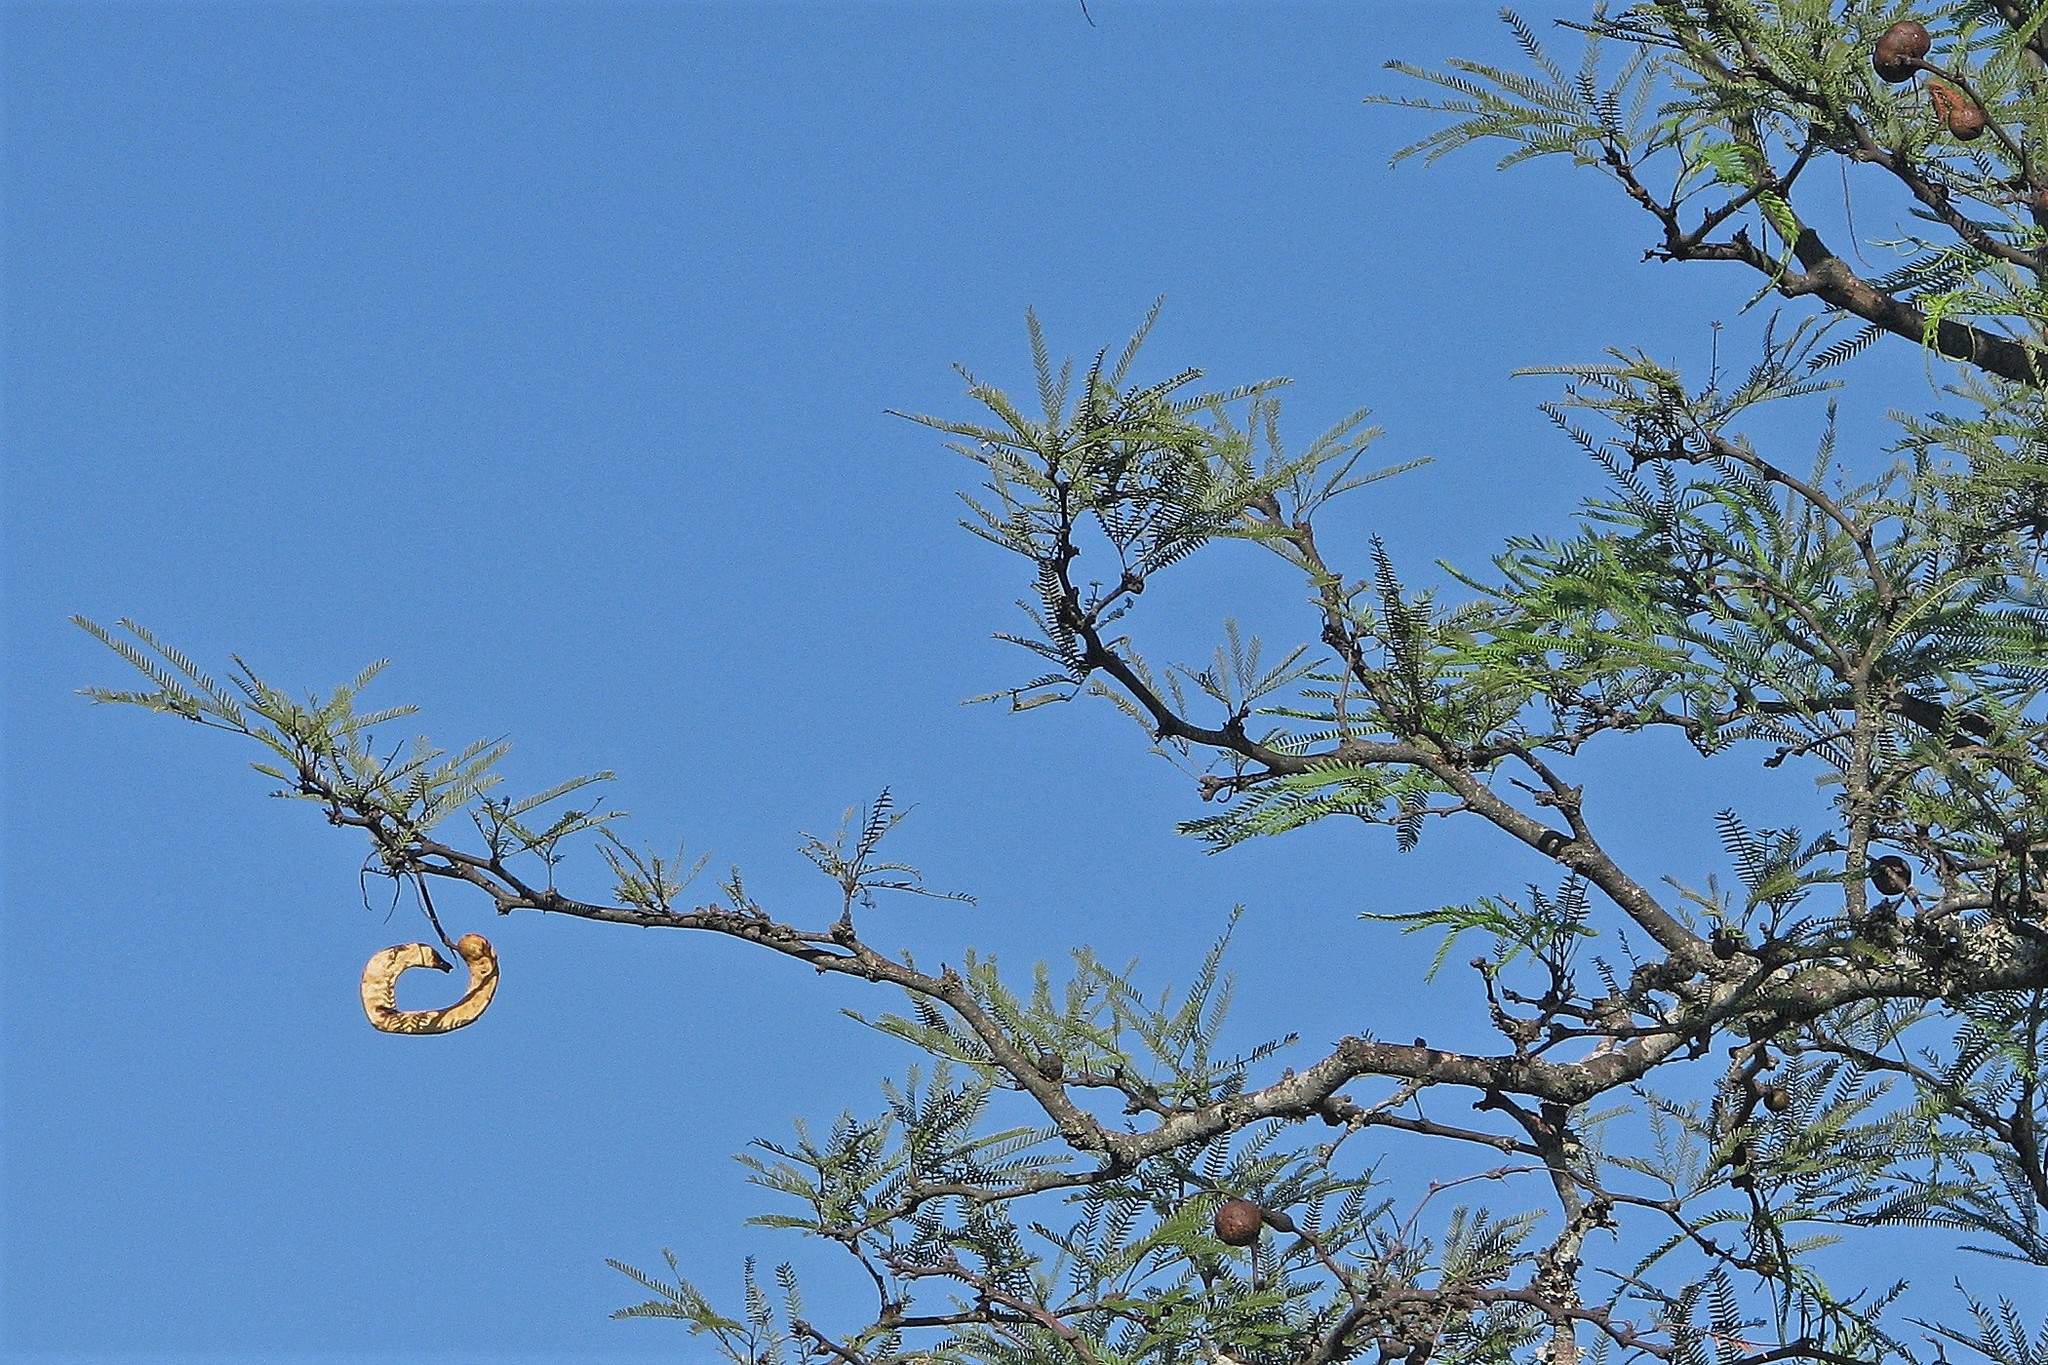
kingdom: Plantae
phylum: Tracheophyta
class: Magnoliopsida
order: Fabales
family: Fabaceae
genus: Prosopis
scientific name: Prosopis alba
